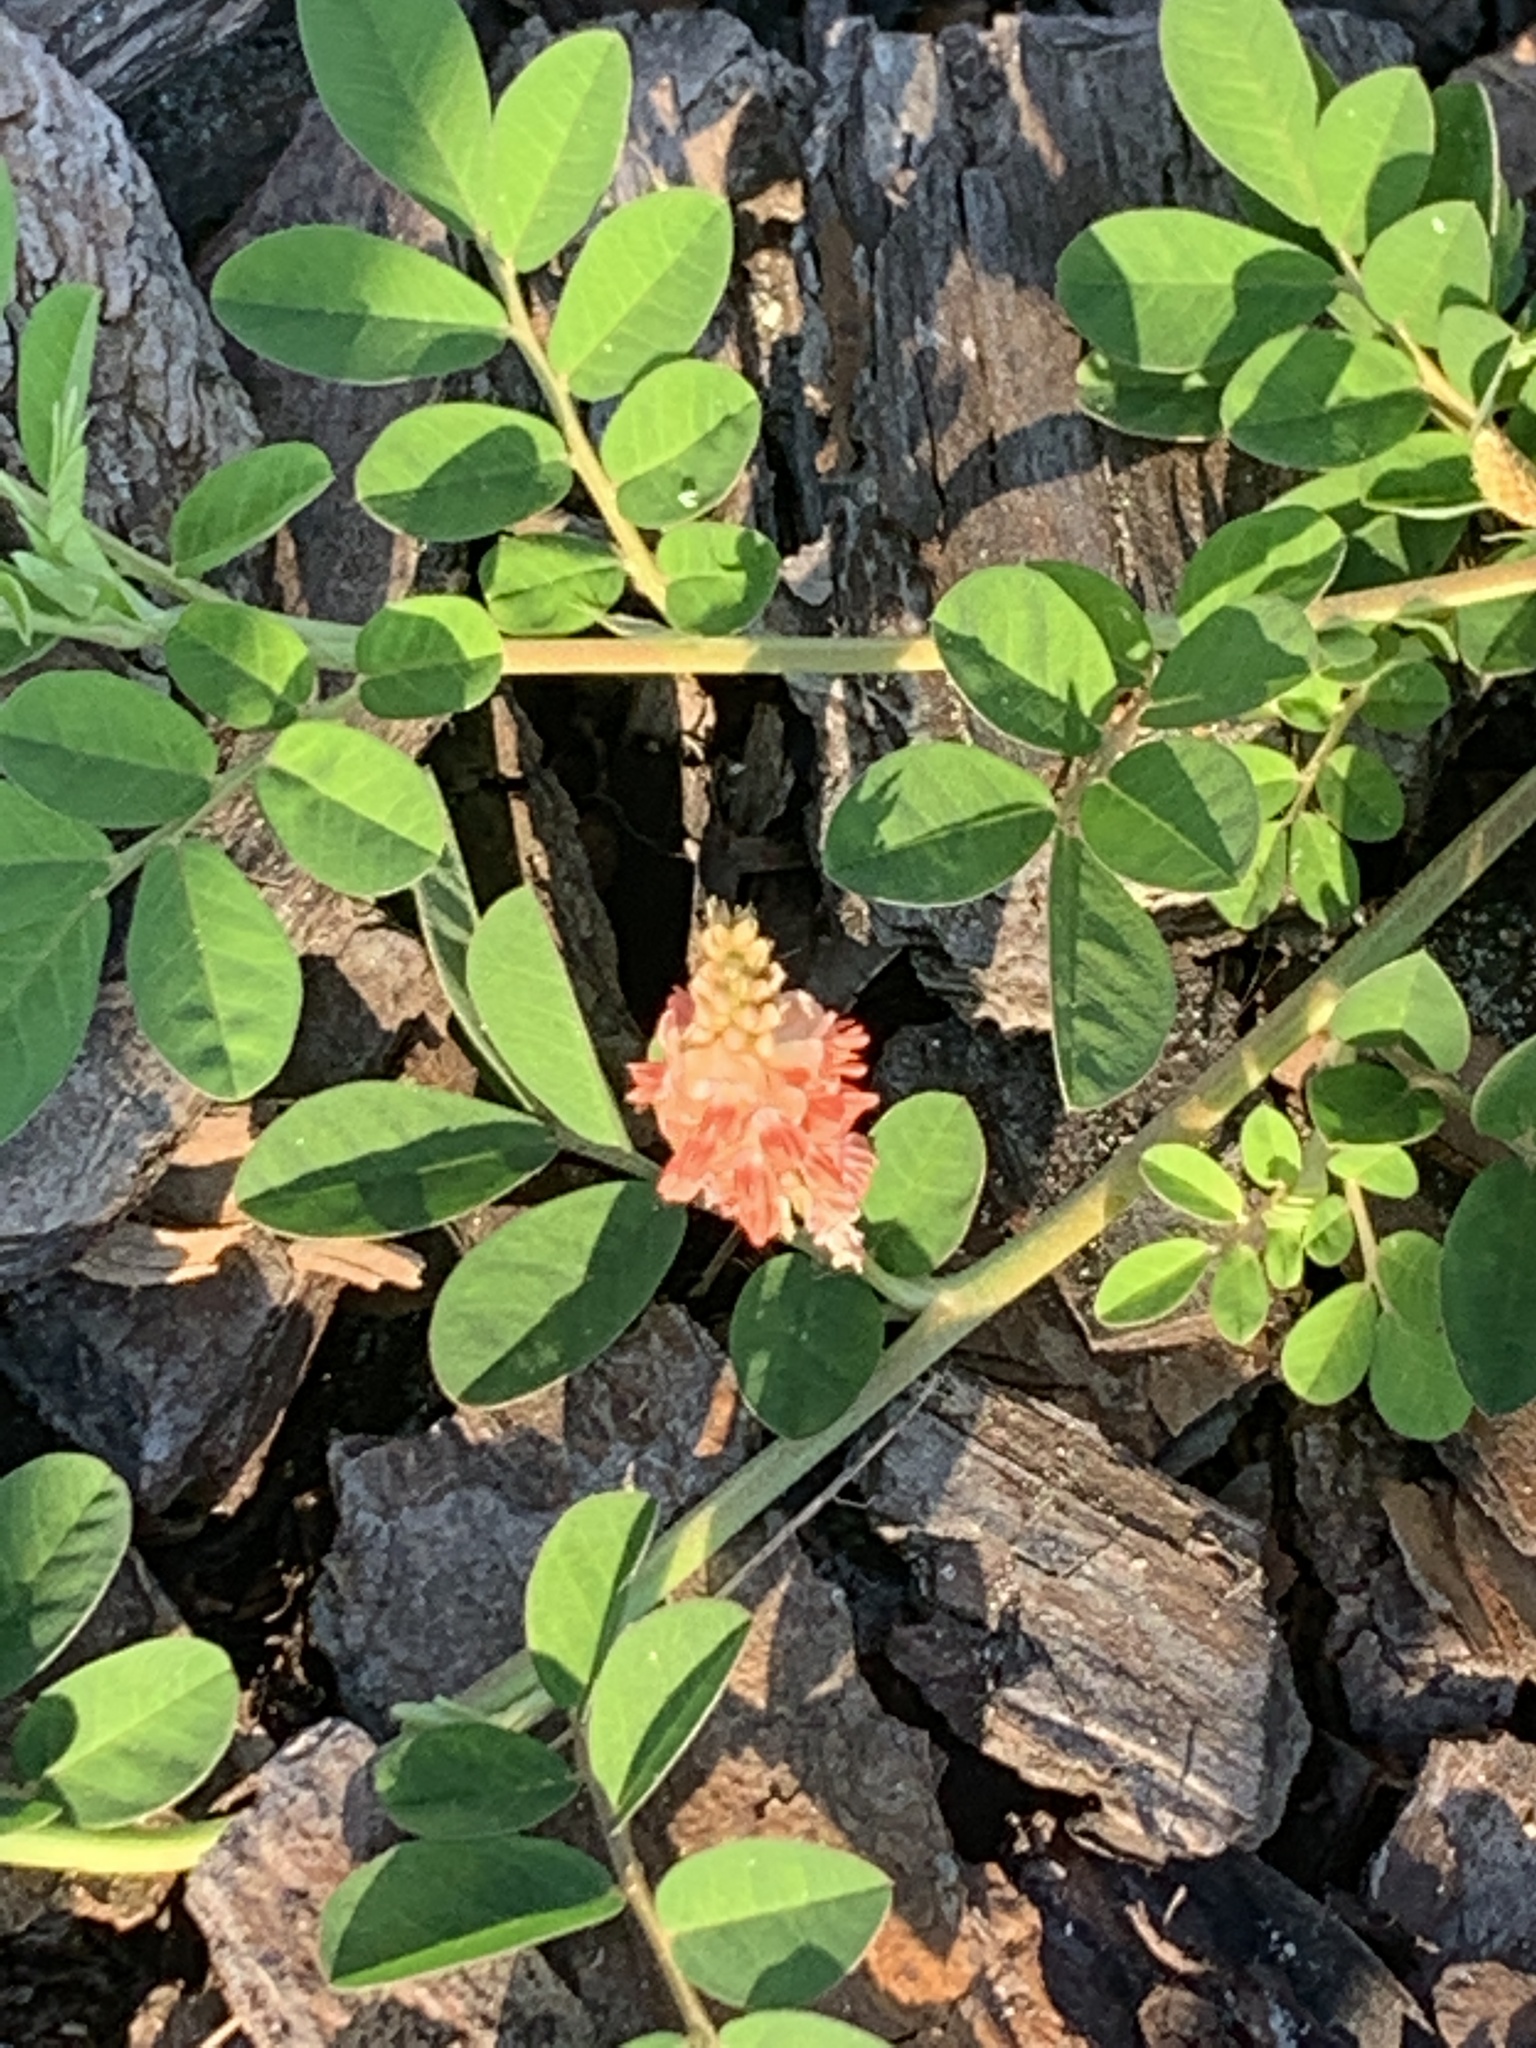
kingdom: Plantae
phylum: Tracheophyta
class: Magnoliopsida
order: Fabales
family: Fabaceae
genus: Indigofera
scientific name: Indigofera spicata
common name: Creeping indigo
